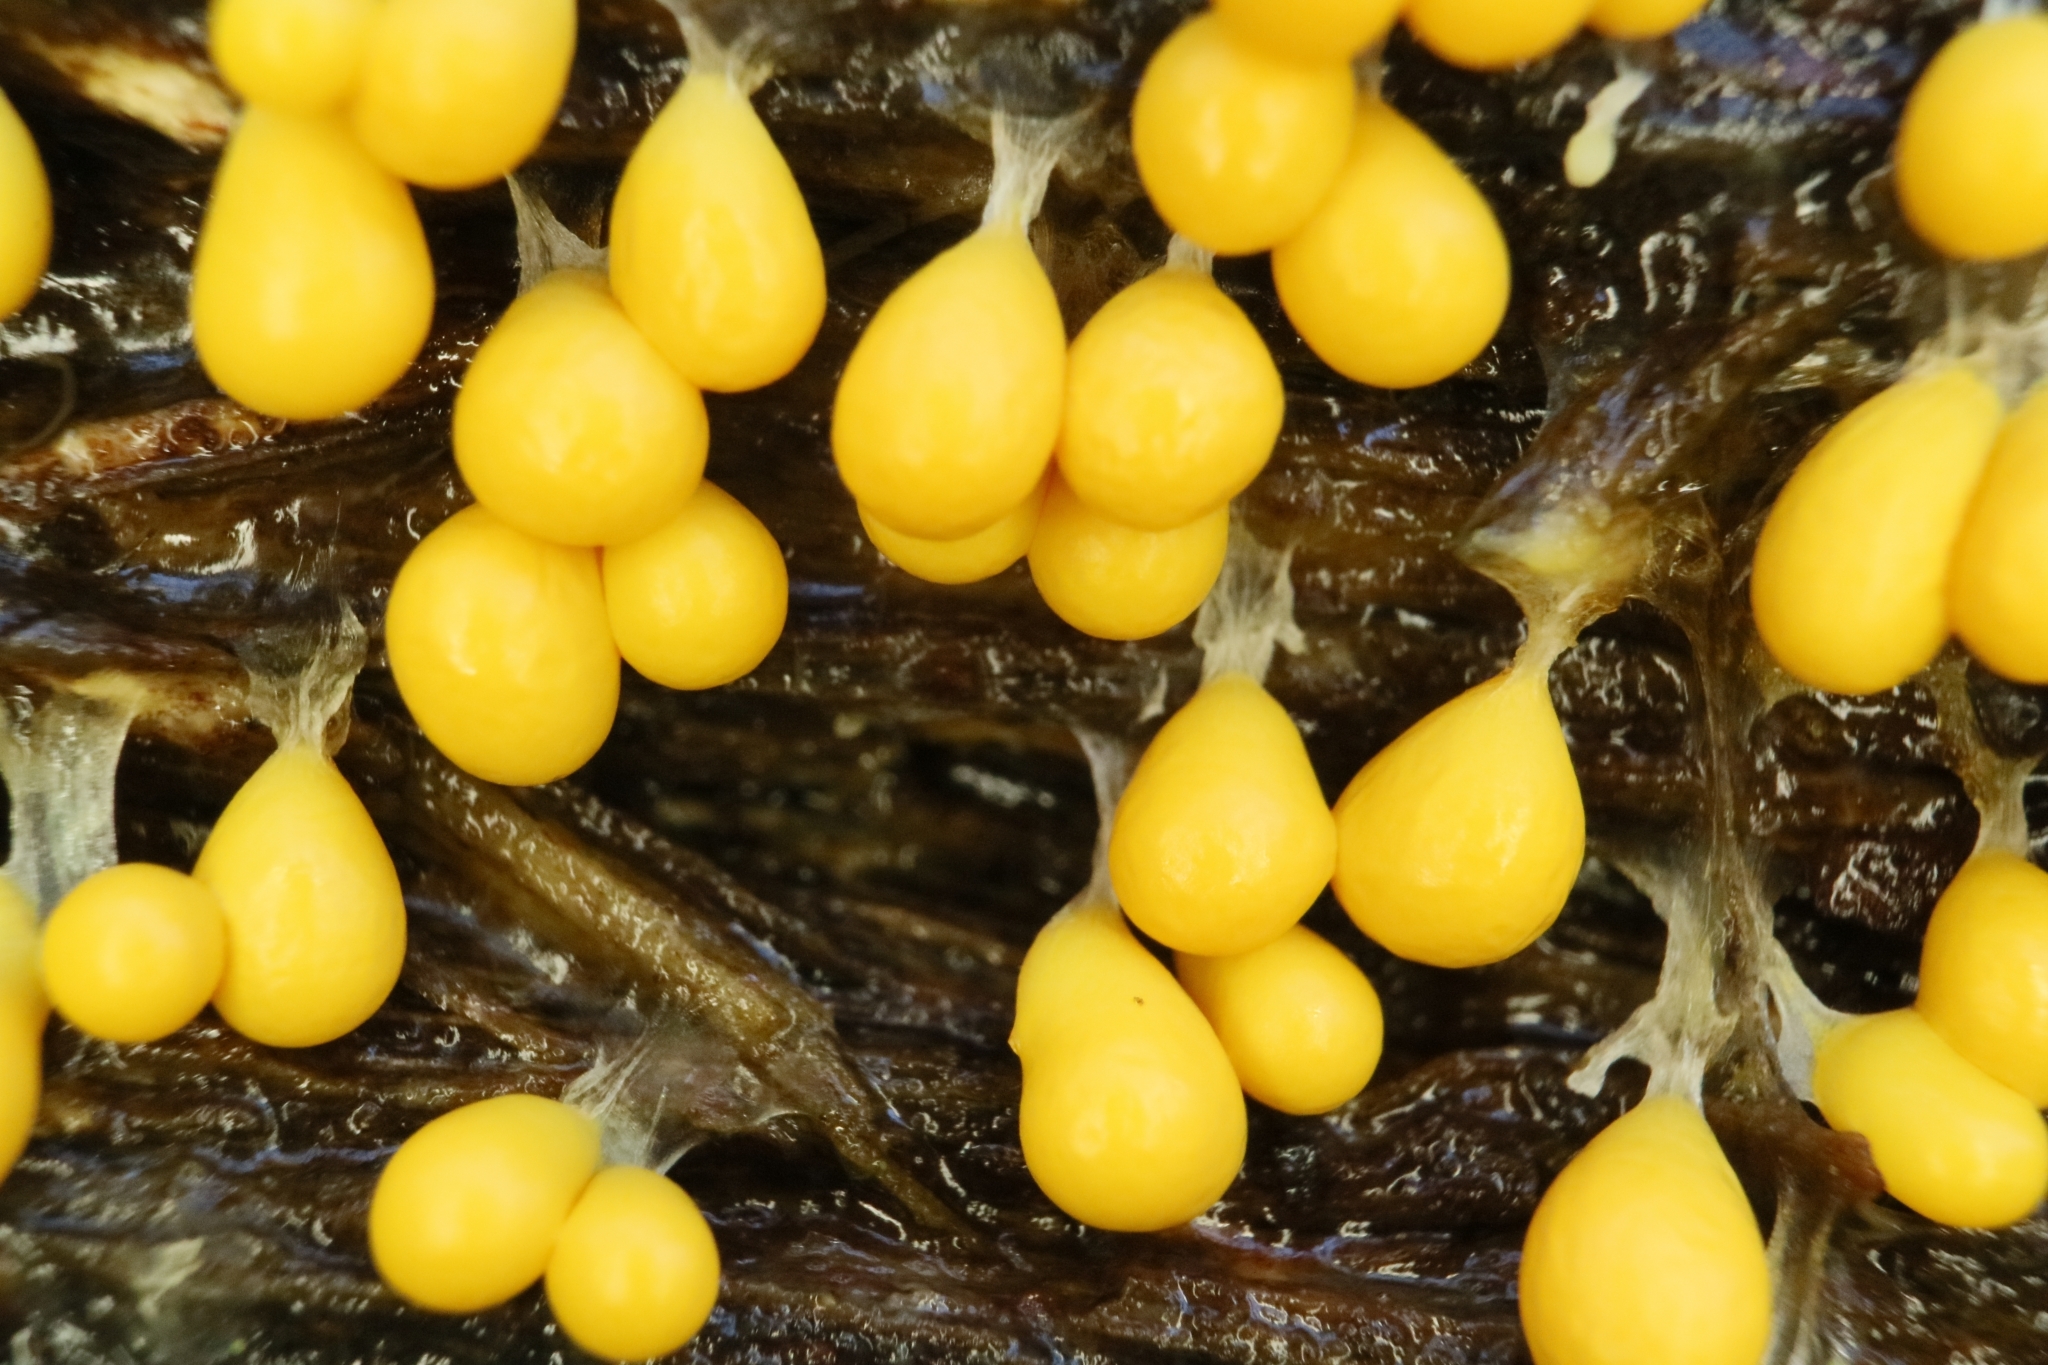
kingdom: Protozoa
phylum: Mycetozoa
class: Myxomycetes
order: Physarales
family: Physaraceae
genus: Leocarpus
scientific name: Leocarpus fragilis
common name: Insect-egg slime
